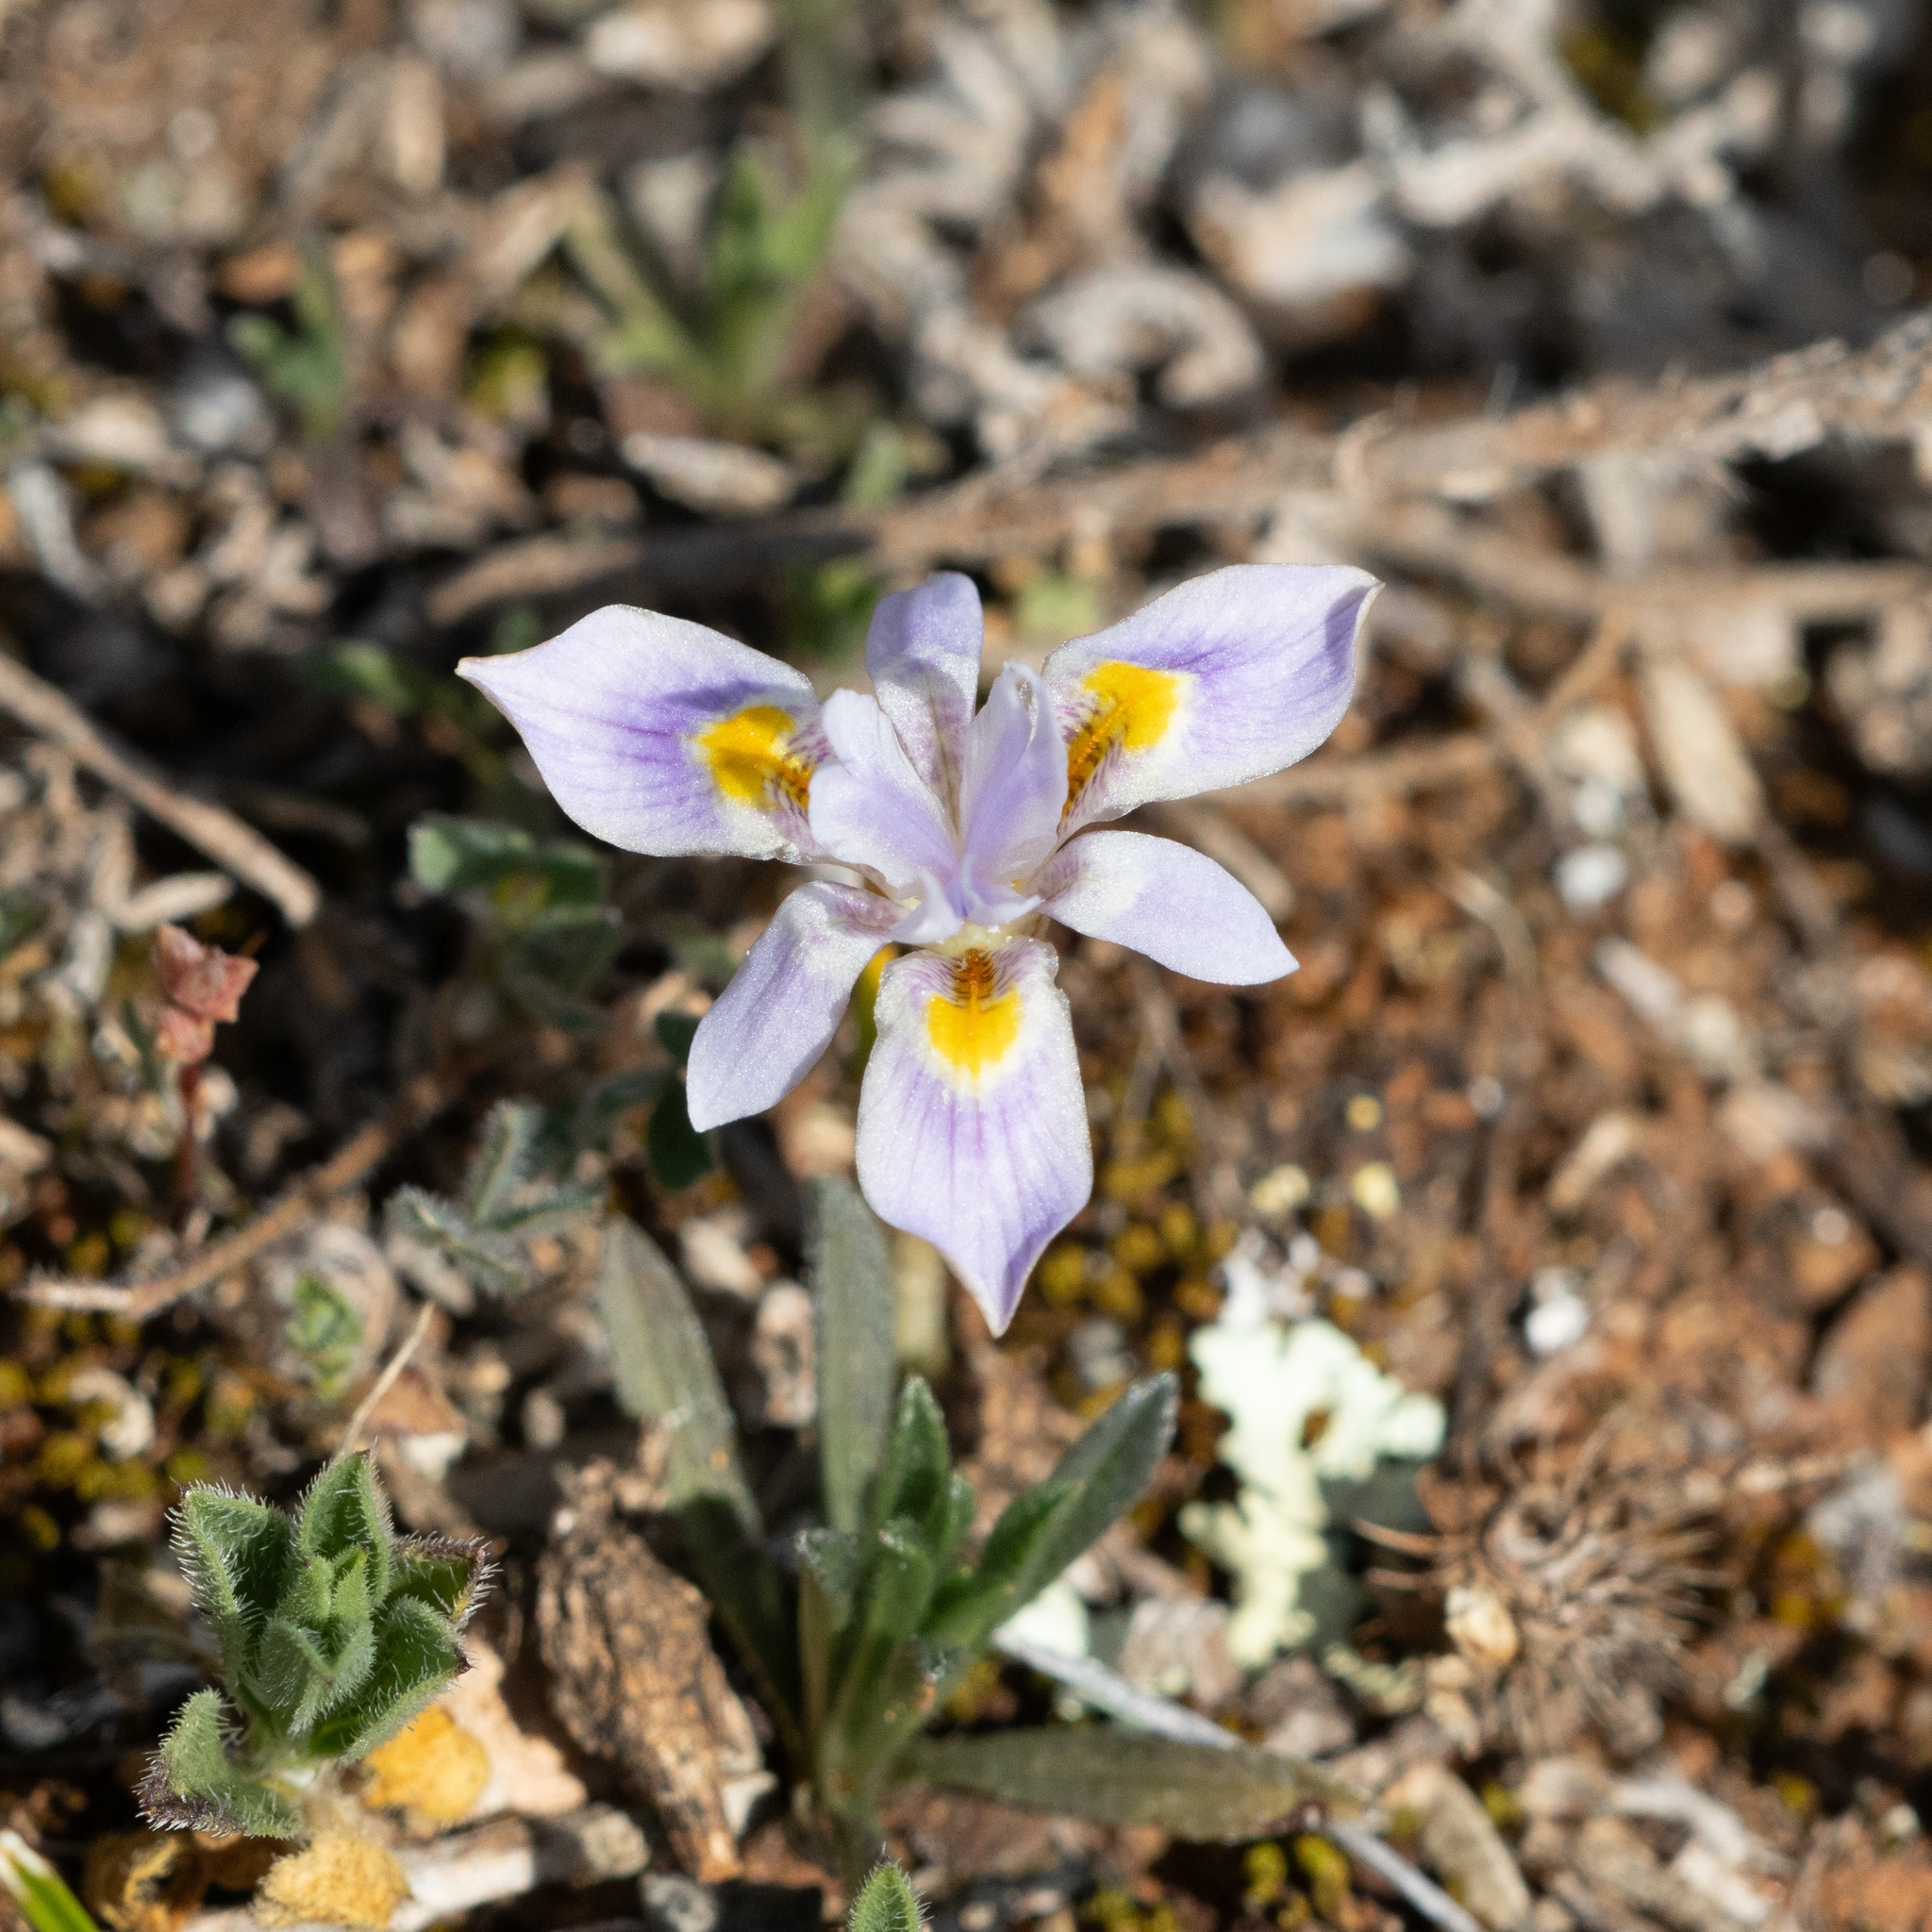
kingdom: Plantae
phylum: Tracheophyta
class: Liliopsida
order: Asparagales
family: Iridaceae
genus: Moraea
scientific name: Moraea setifolia
